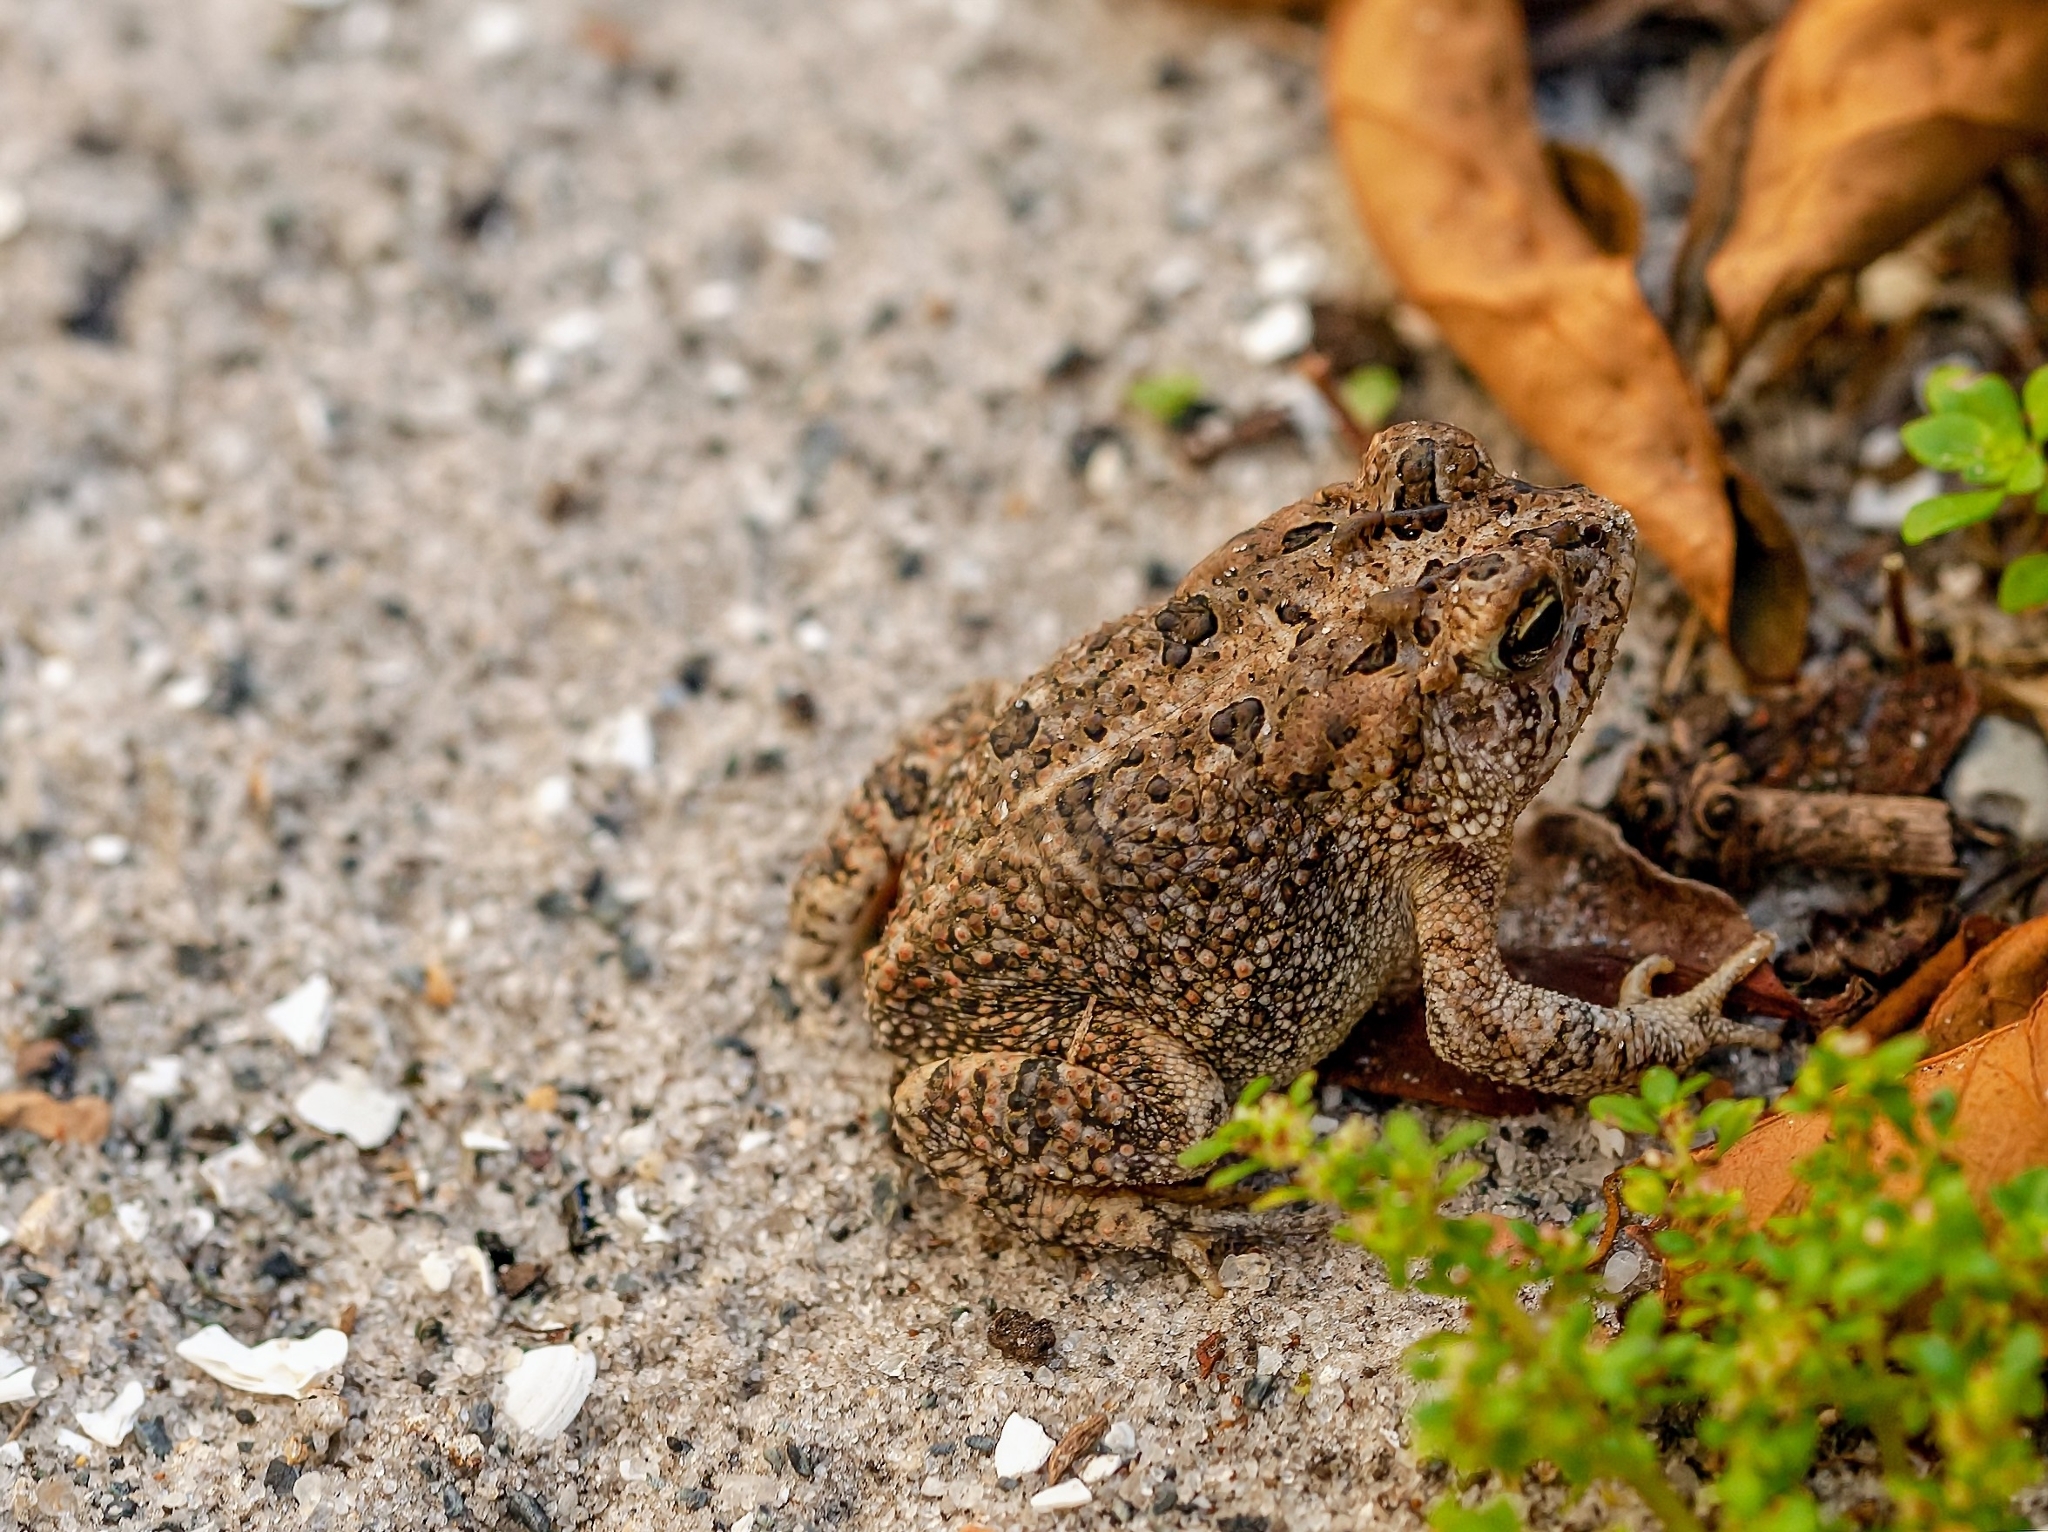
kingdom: Animalia
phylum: Chordata
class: Amphibia
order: Anura
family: Bufonidae
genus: Anaxyrus
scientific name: Anaxyrus terrestris
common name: Southern toad
